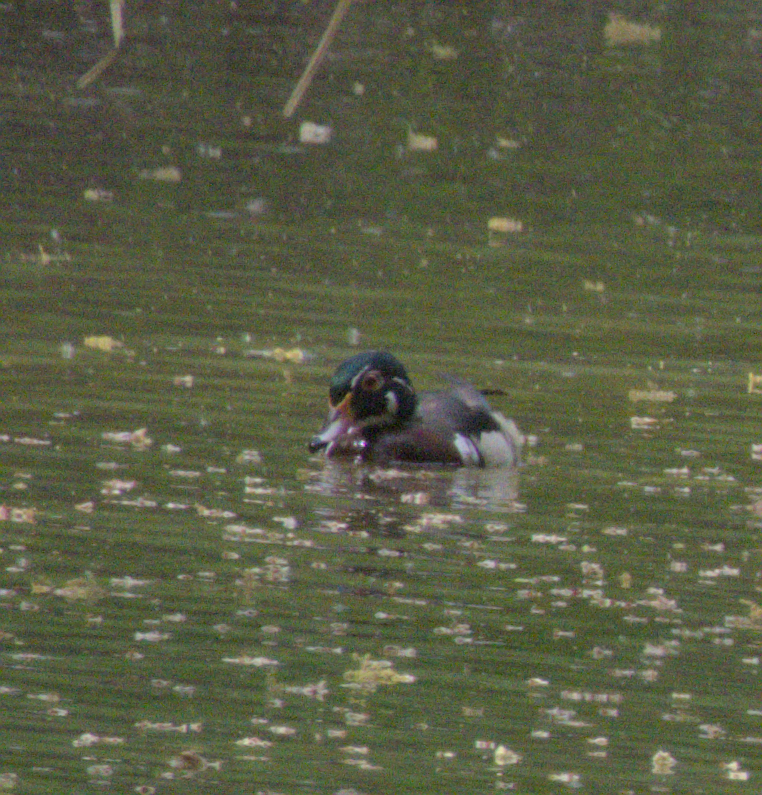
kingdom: Animalia
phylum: Chordata
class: Aves
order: Anseriformes
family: Anatidae
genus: Aix
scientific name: Aix sponsa
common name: Wood duck
